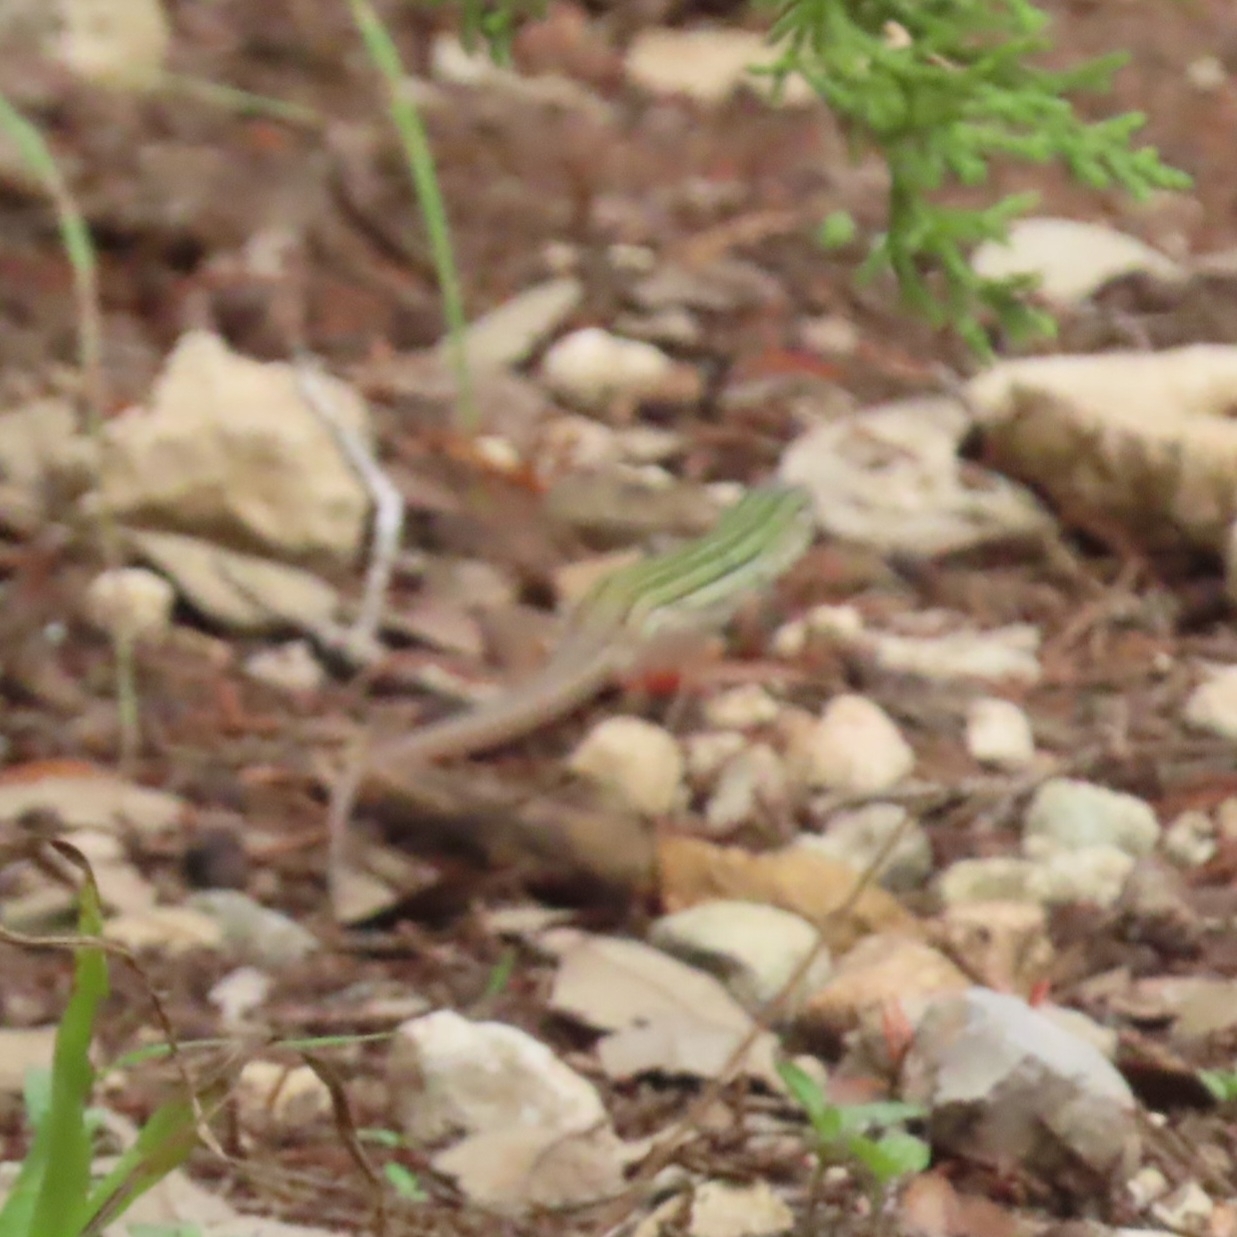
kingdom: Animalia
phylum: Chordata
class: Squamata
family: Teiidae
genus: Aspidoscelis
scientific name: Aspidoscelis gularis
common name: Eastern spotted whiptail
